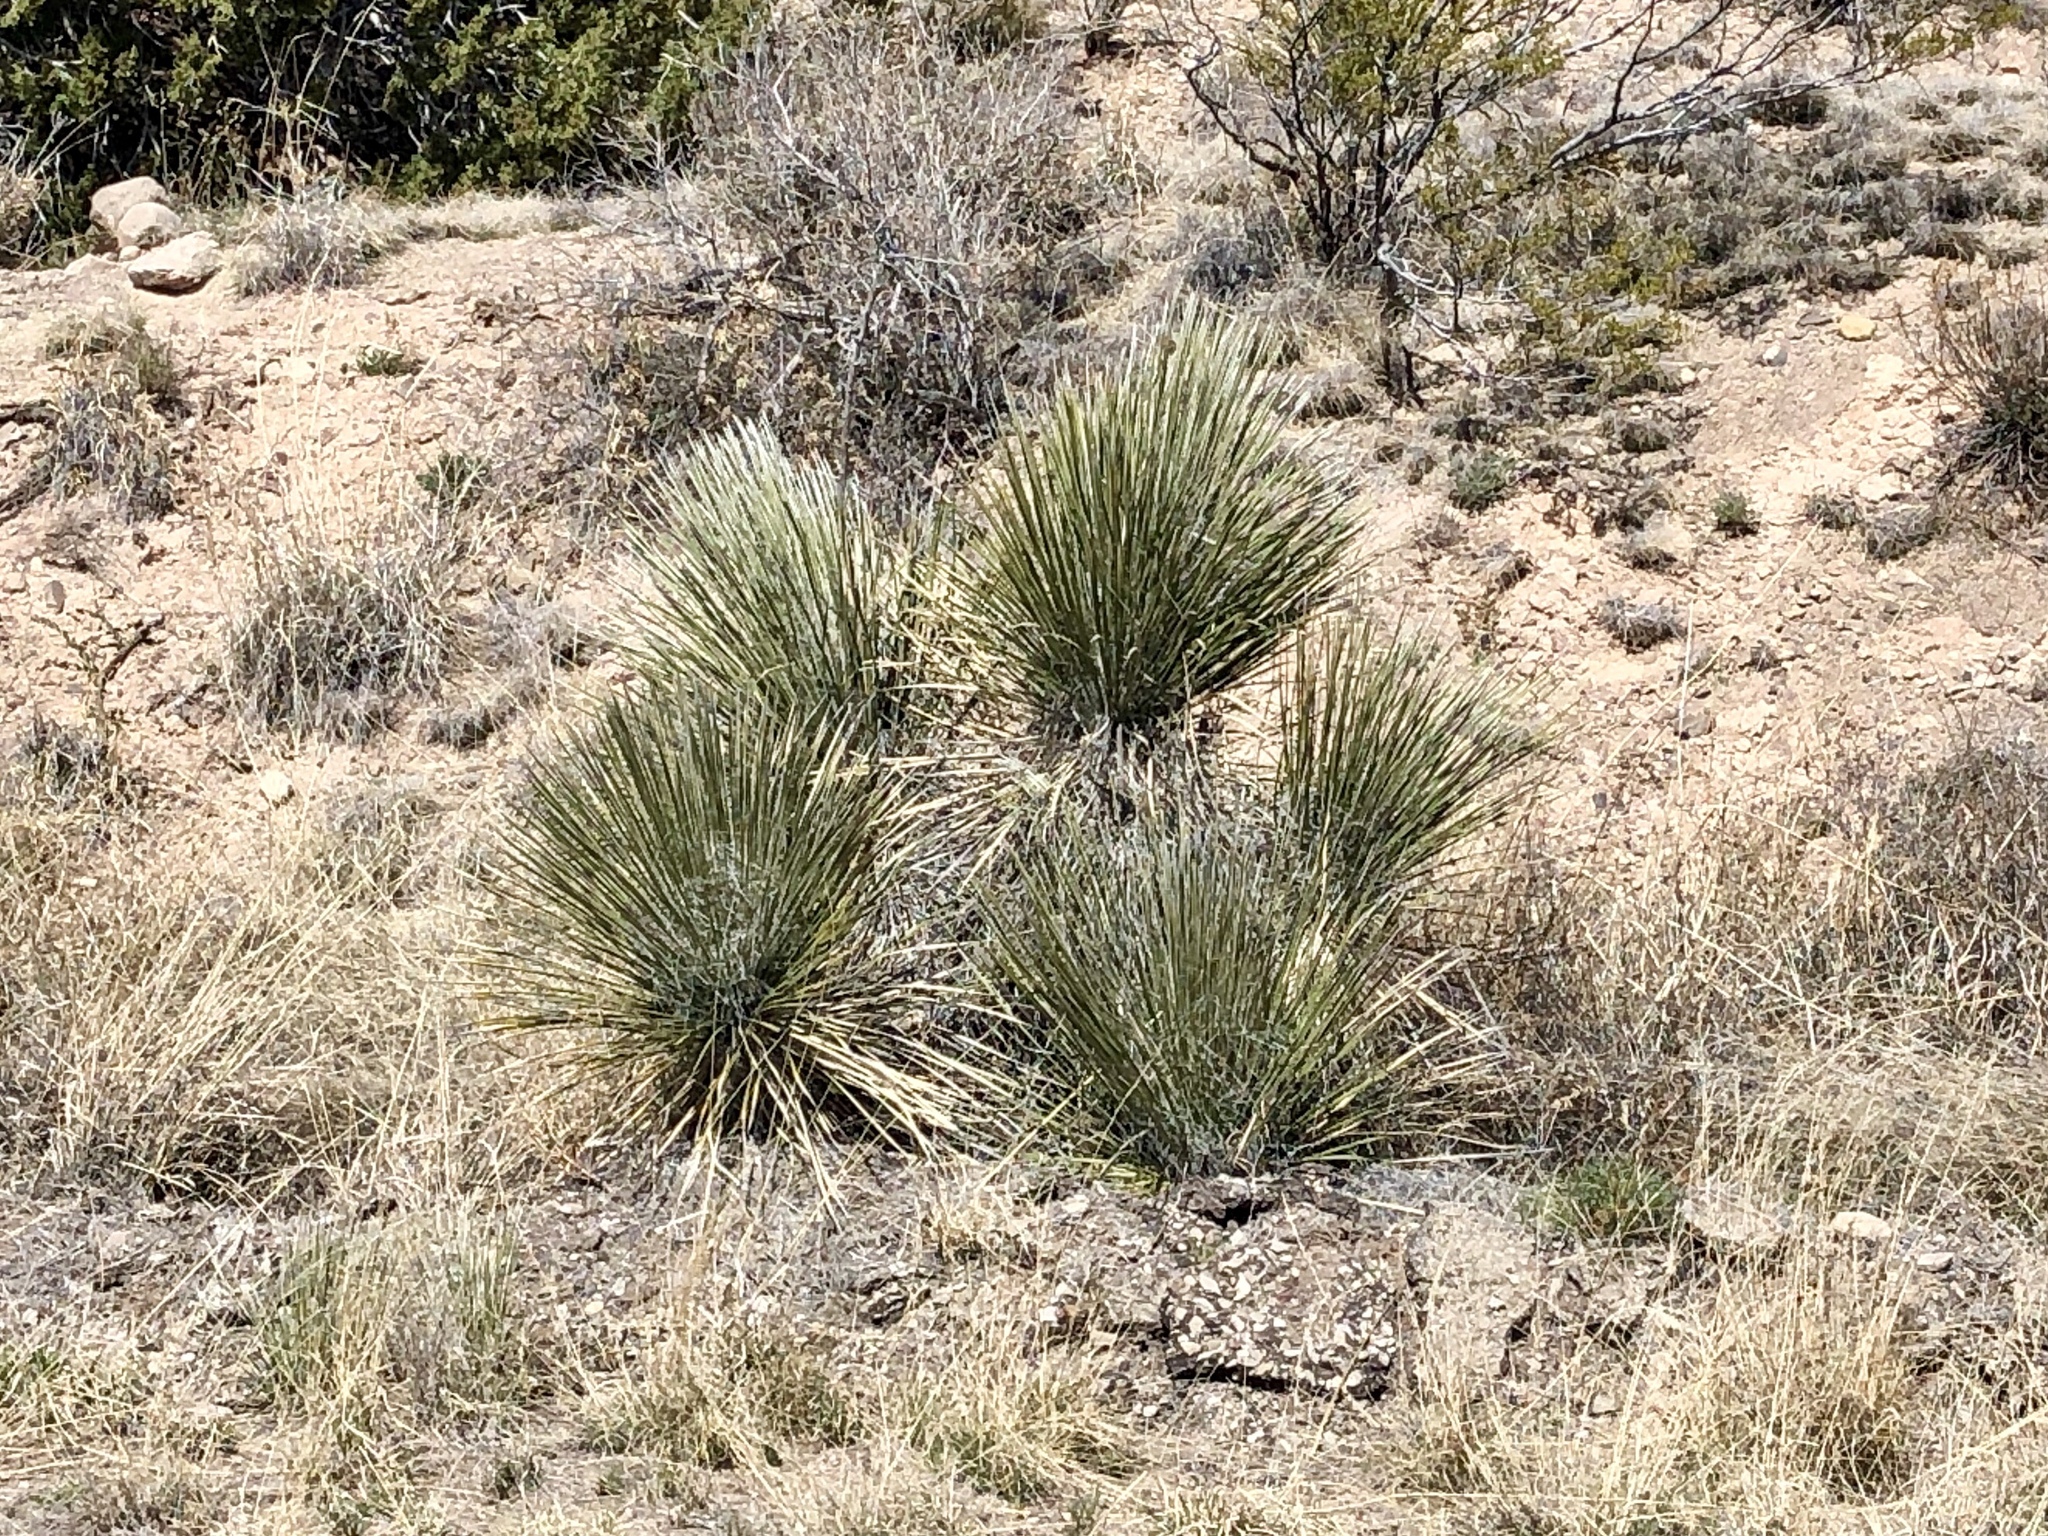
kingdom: Plantae
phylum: Tracheophyta
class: Liliopsida
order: Asparagales
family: Asparagaceae
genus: Yucca
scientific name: Yucca elata
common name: Palmella
